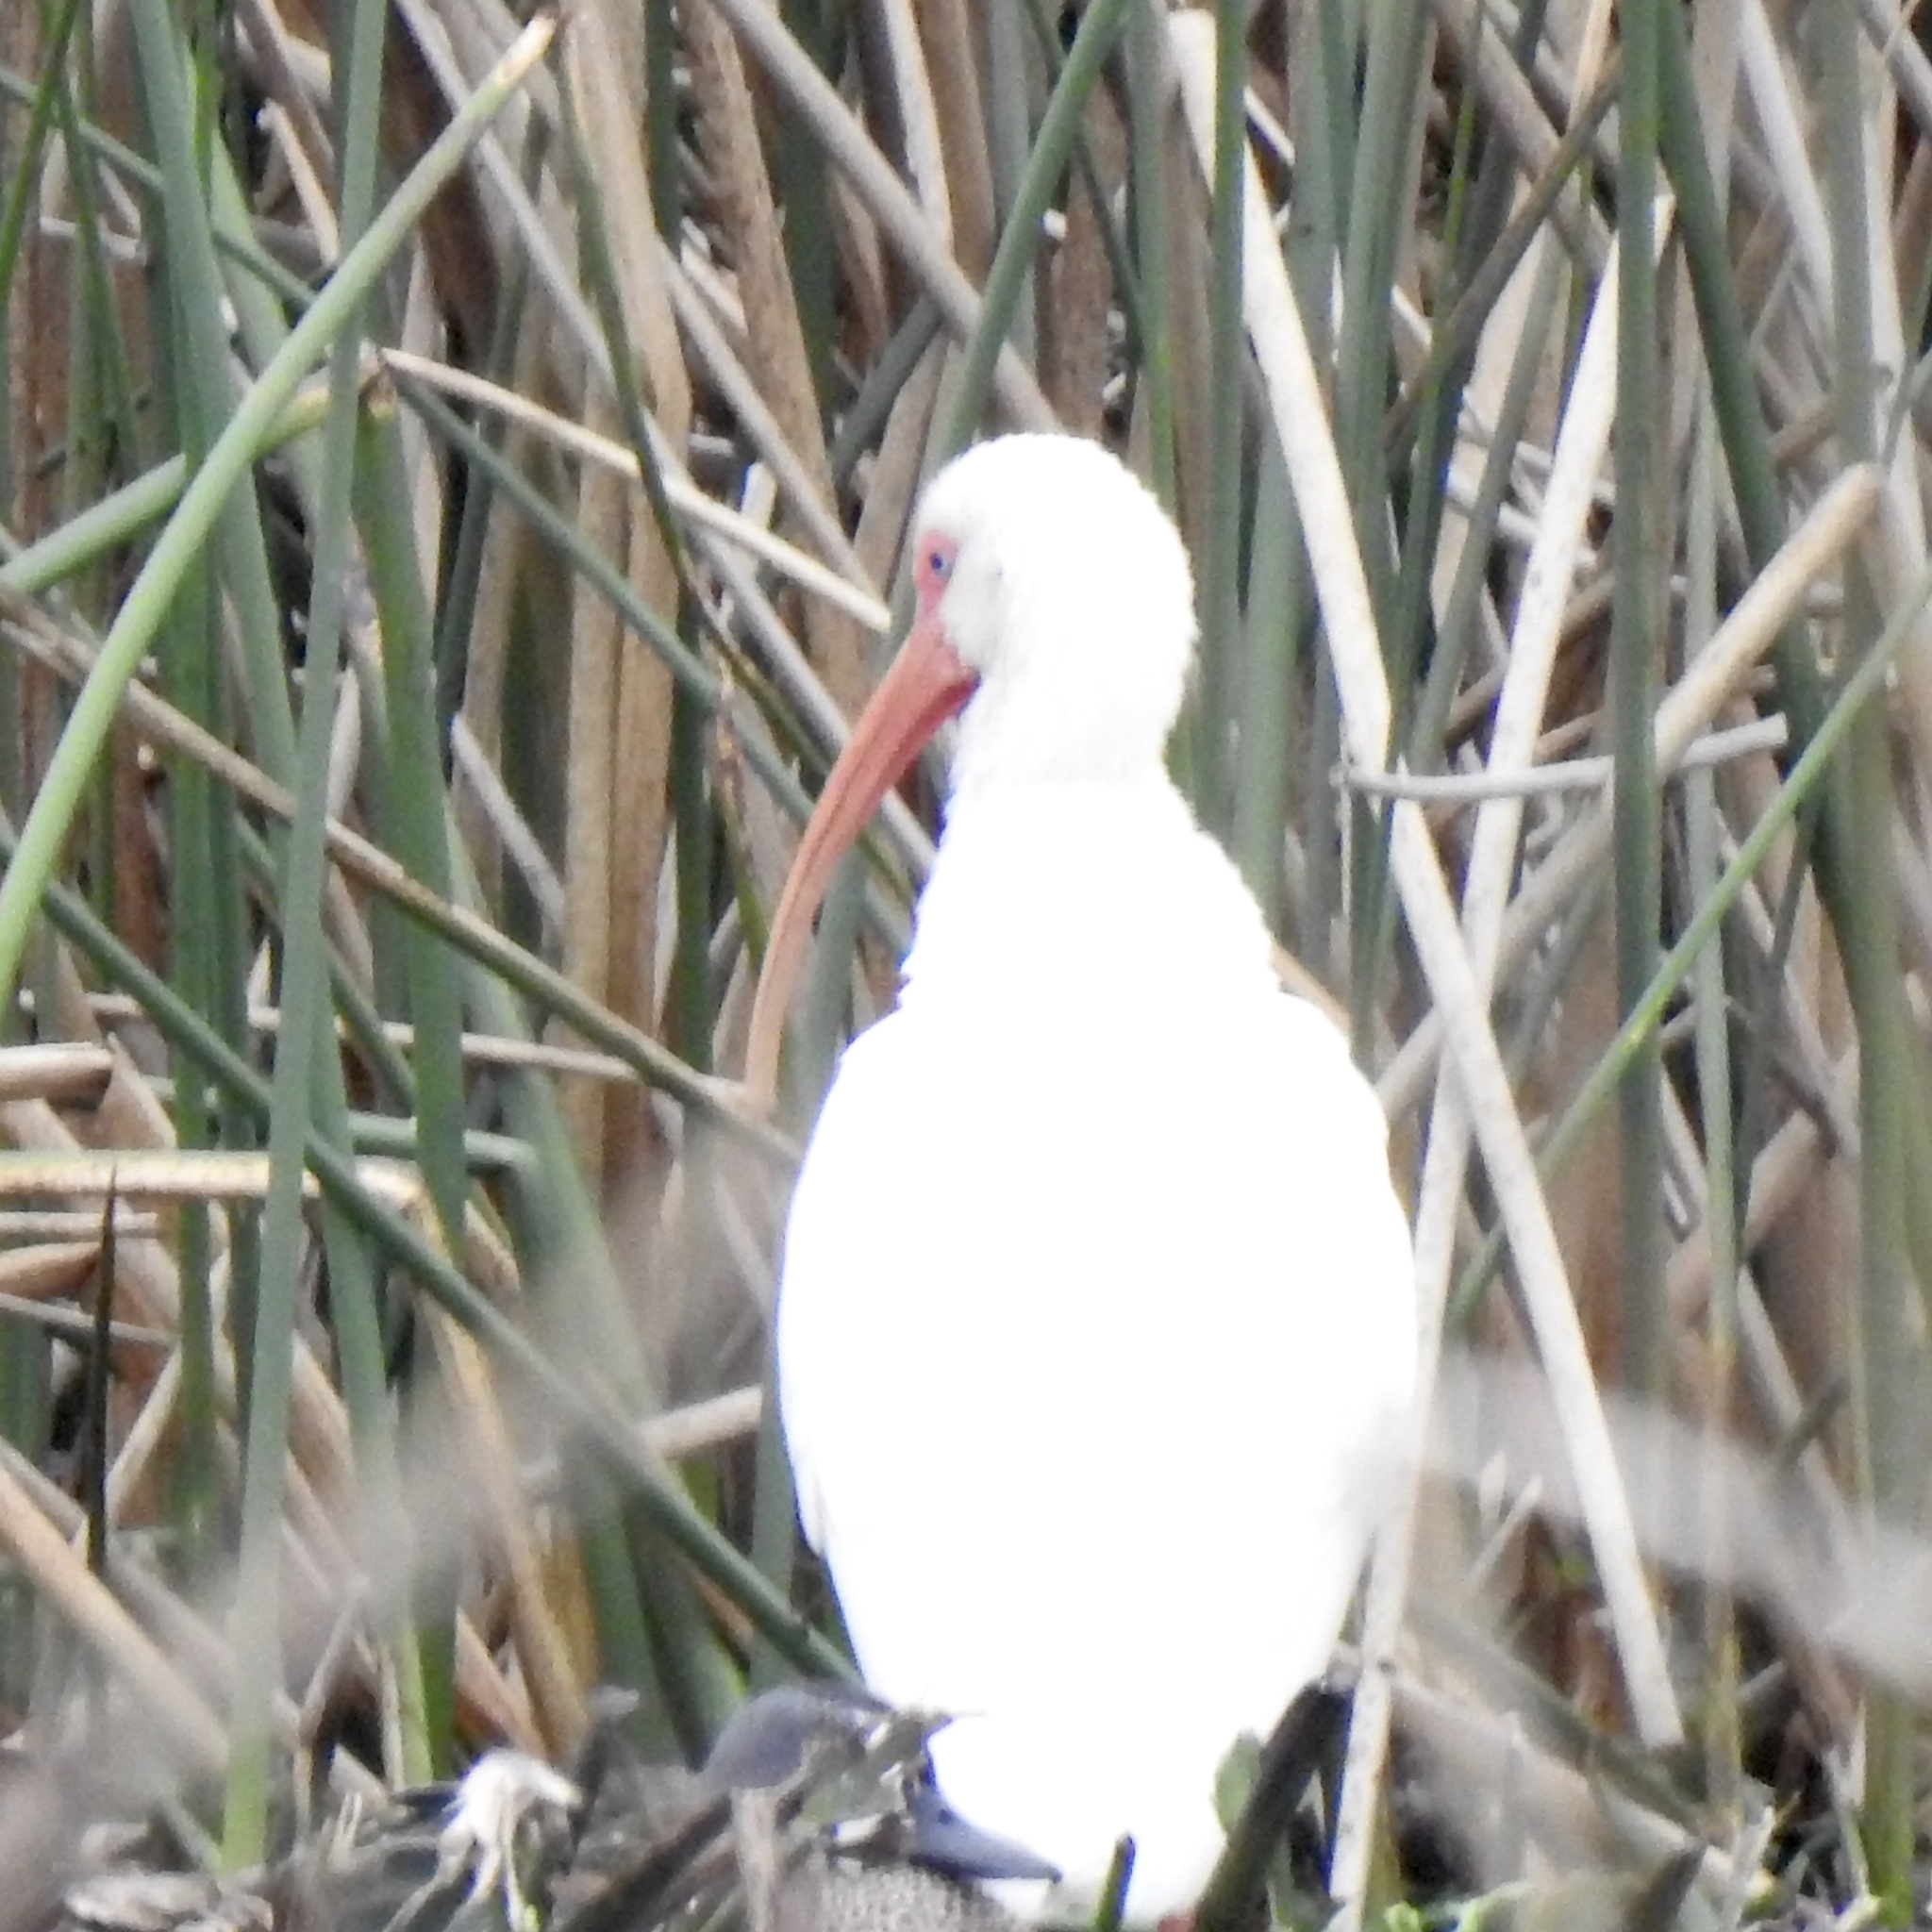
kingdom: Animalia
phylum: Chordata
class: Aves
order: Pelecaniformes
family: Threskiornithidae
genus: Eudocimus
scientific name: Eudocimus albus
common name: White ibis
